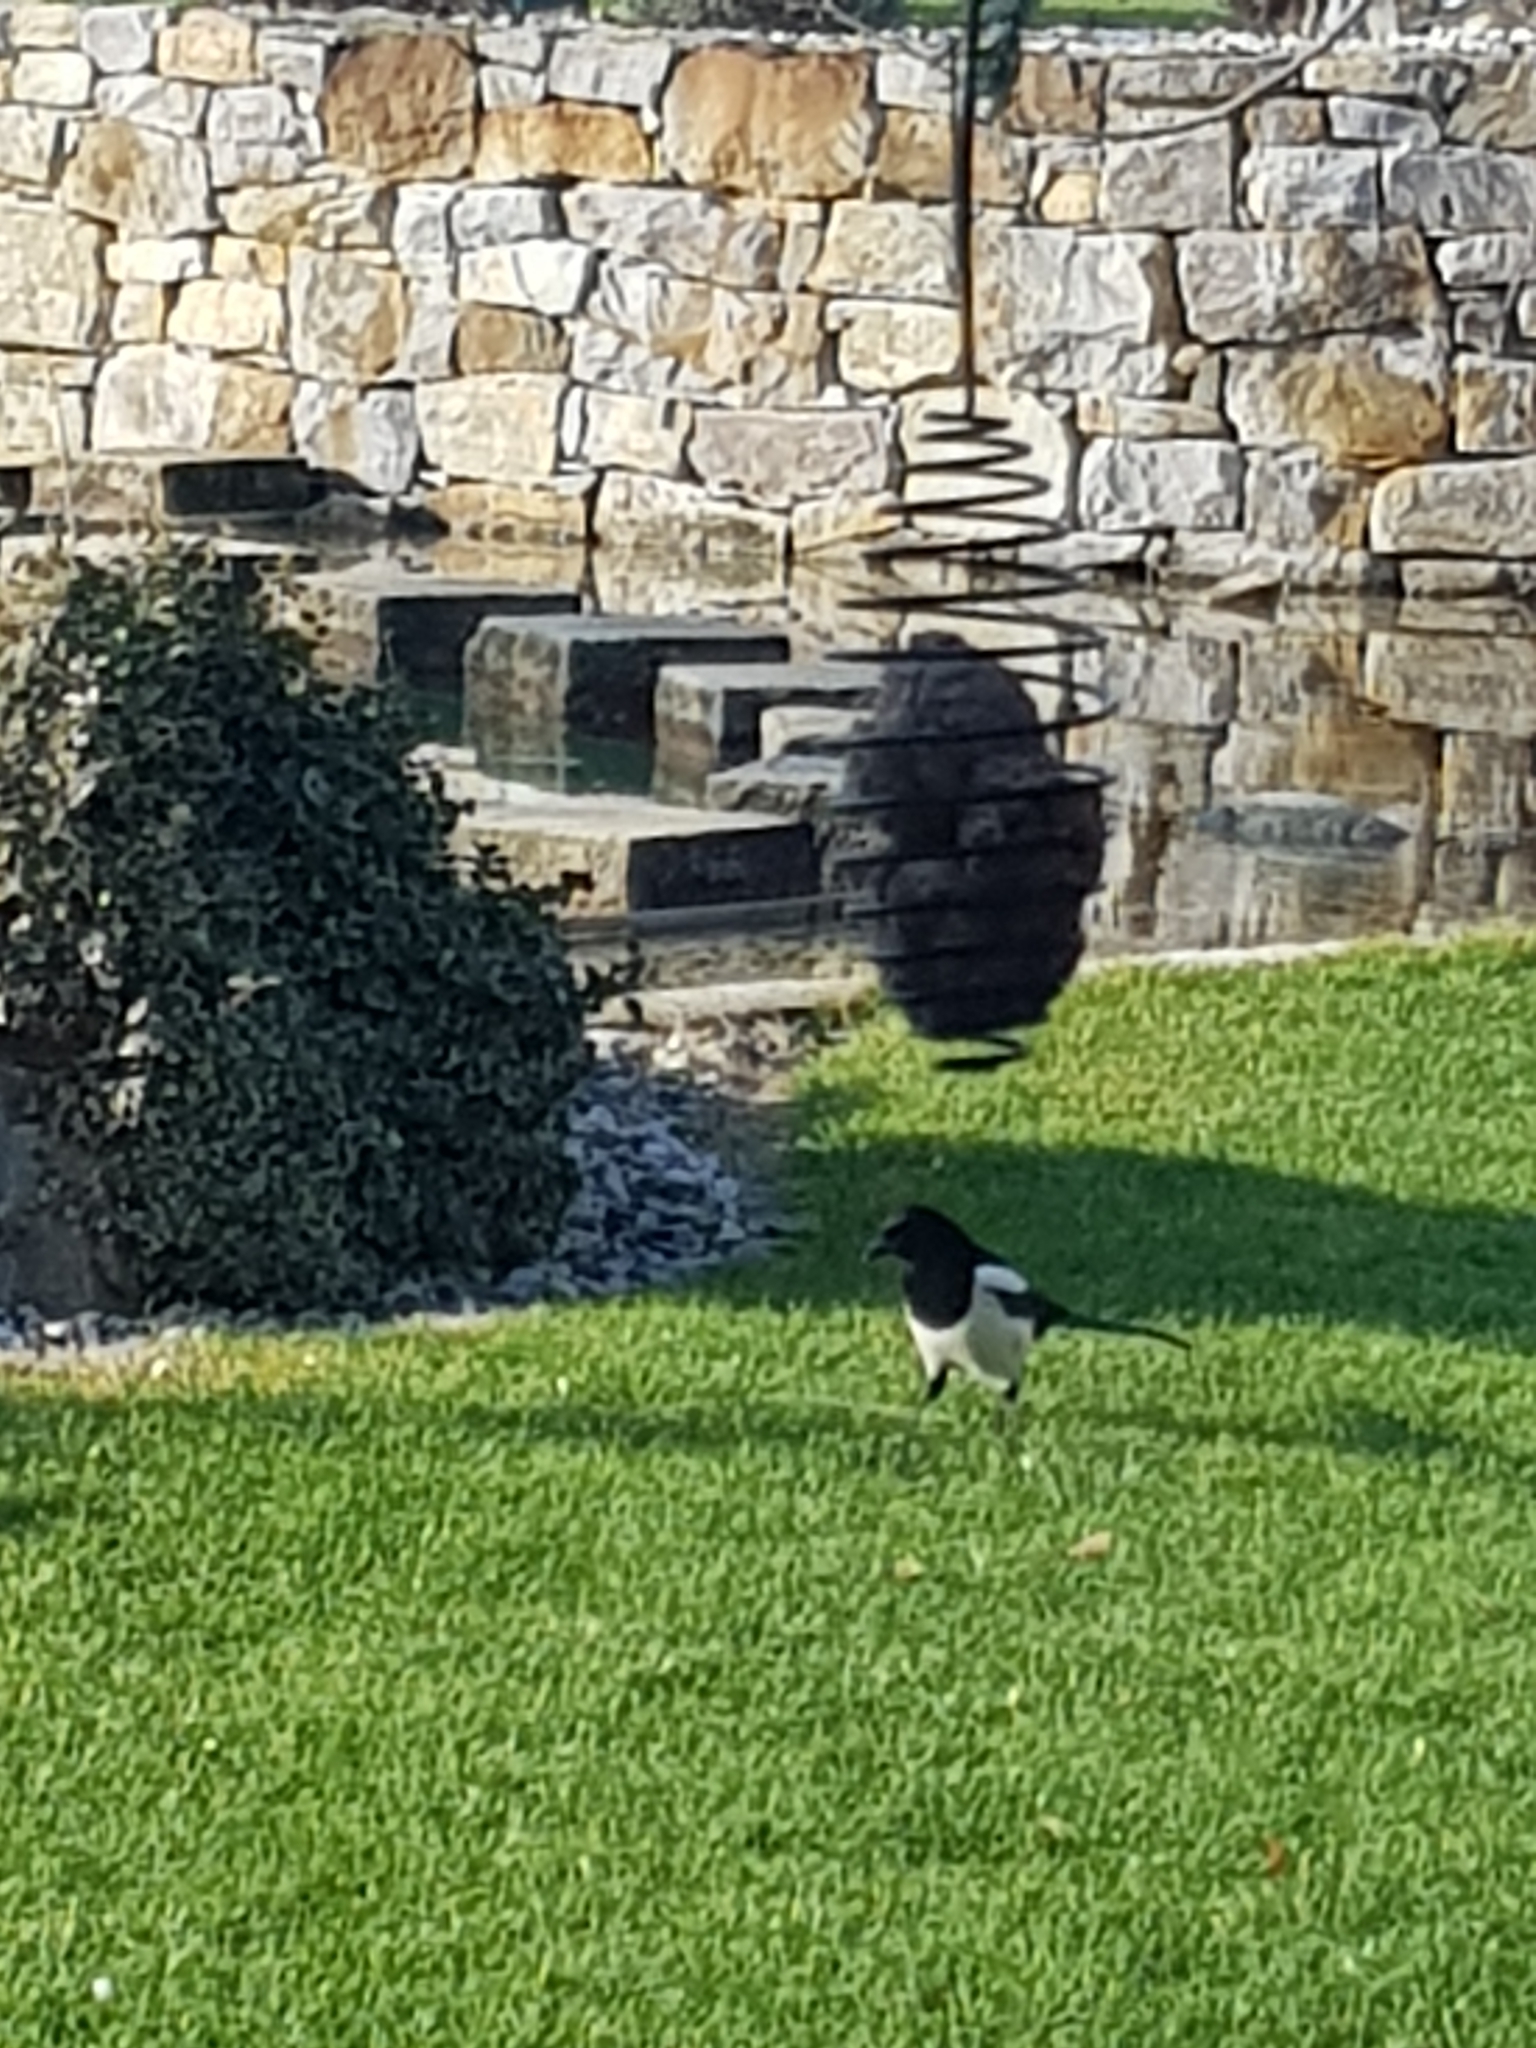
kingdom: Animalia
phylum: Chordata
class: Aves
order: Passeriformes
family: Corvidae
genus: Pica
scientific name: Pica pica
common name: Eurasian magpie
